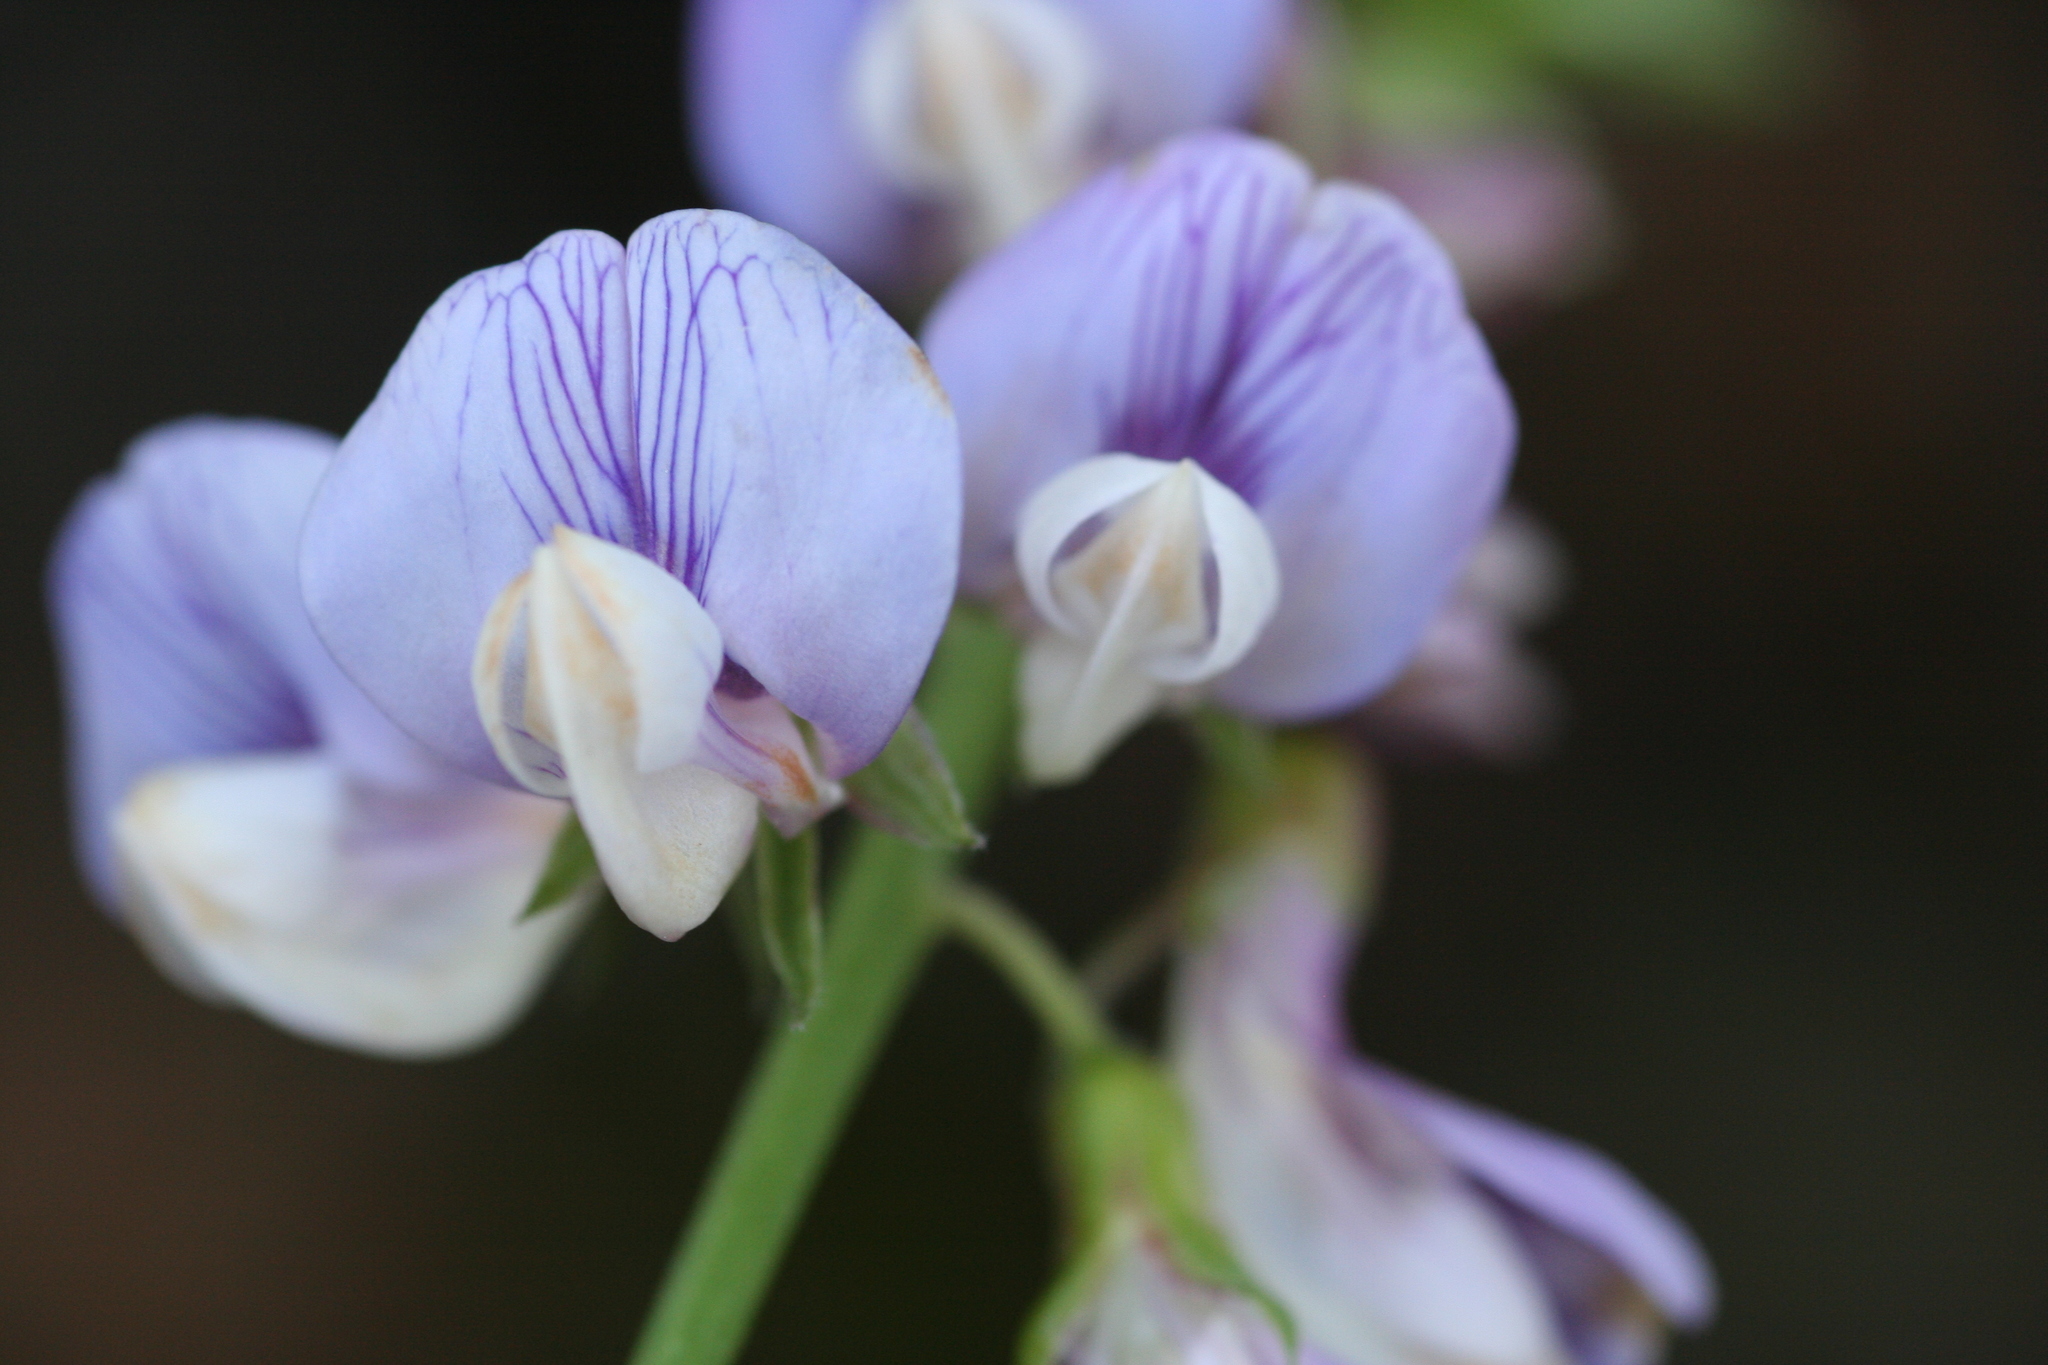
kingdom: Plantae
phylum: Tracheophyta
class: Magnoliopsida
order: Fabales
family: Fabaceae
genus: Lathyrus
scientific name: Lathyrus vestitus
